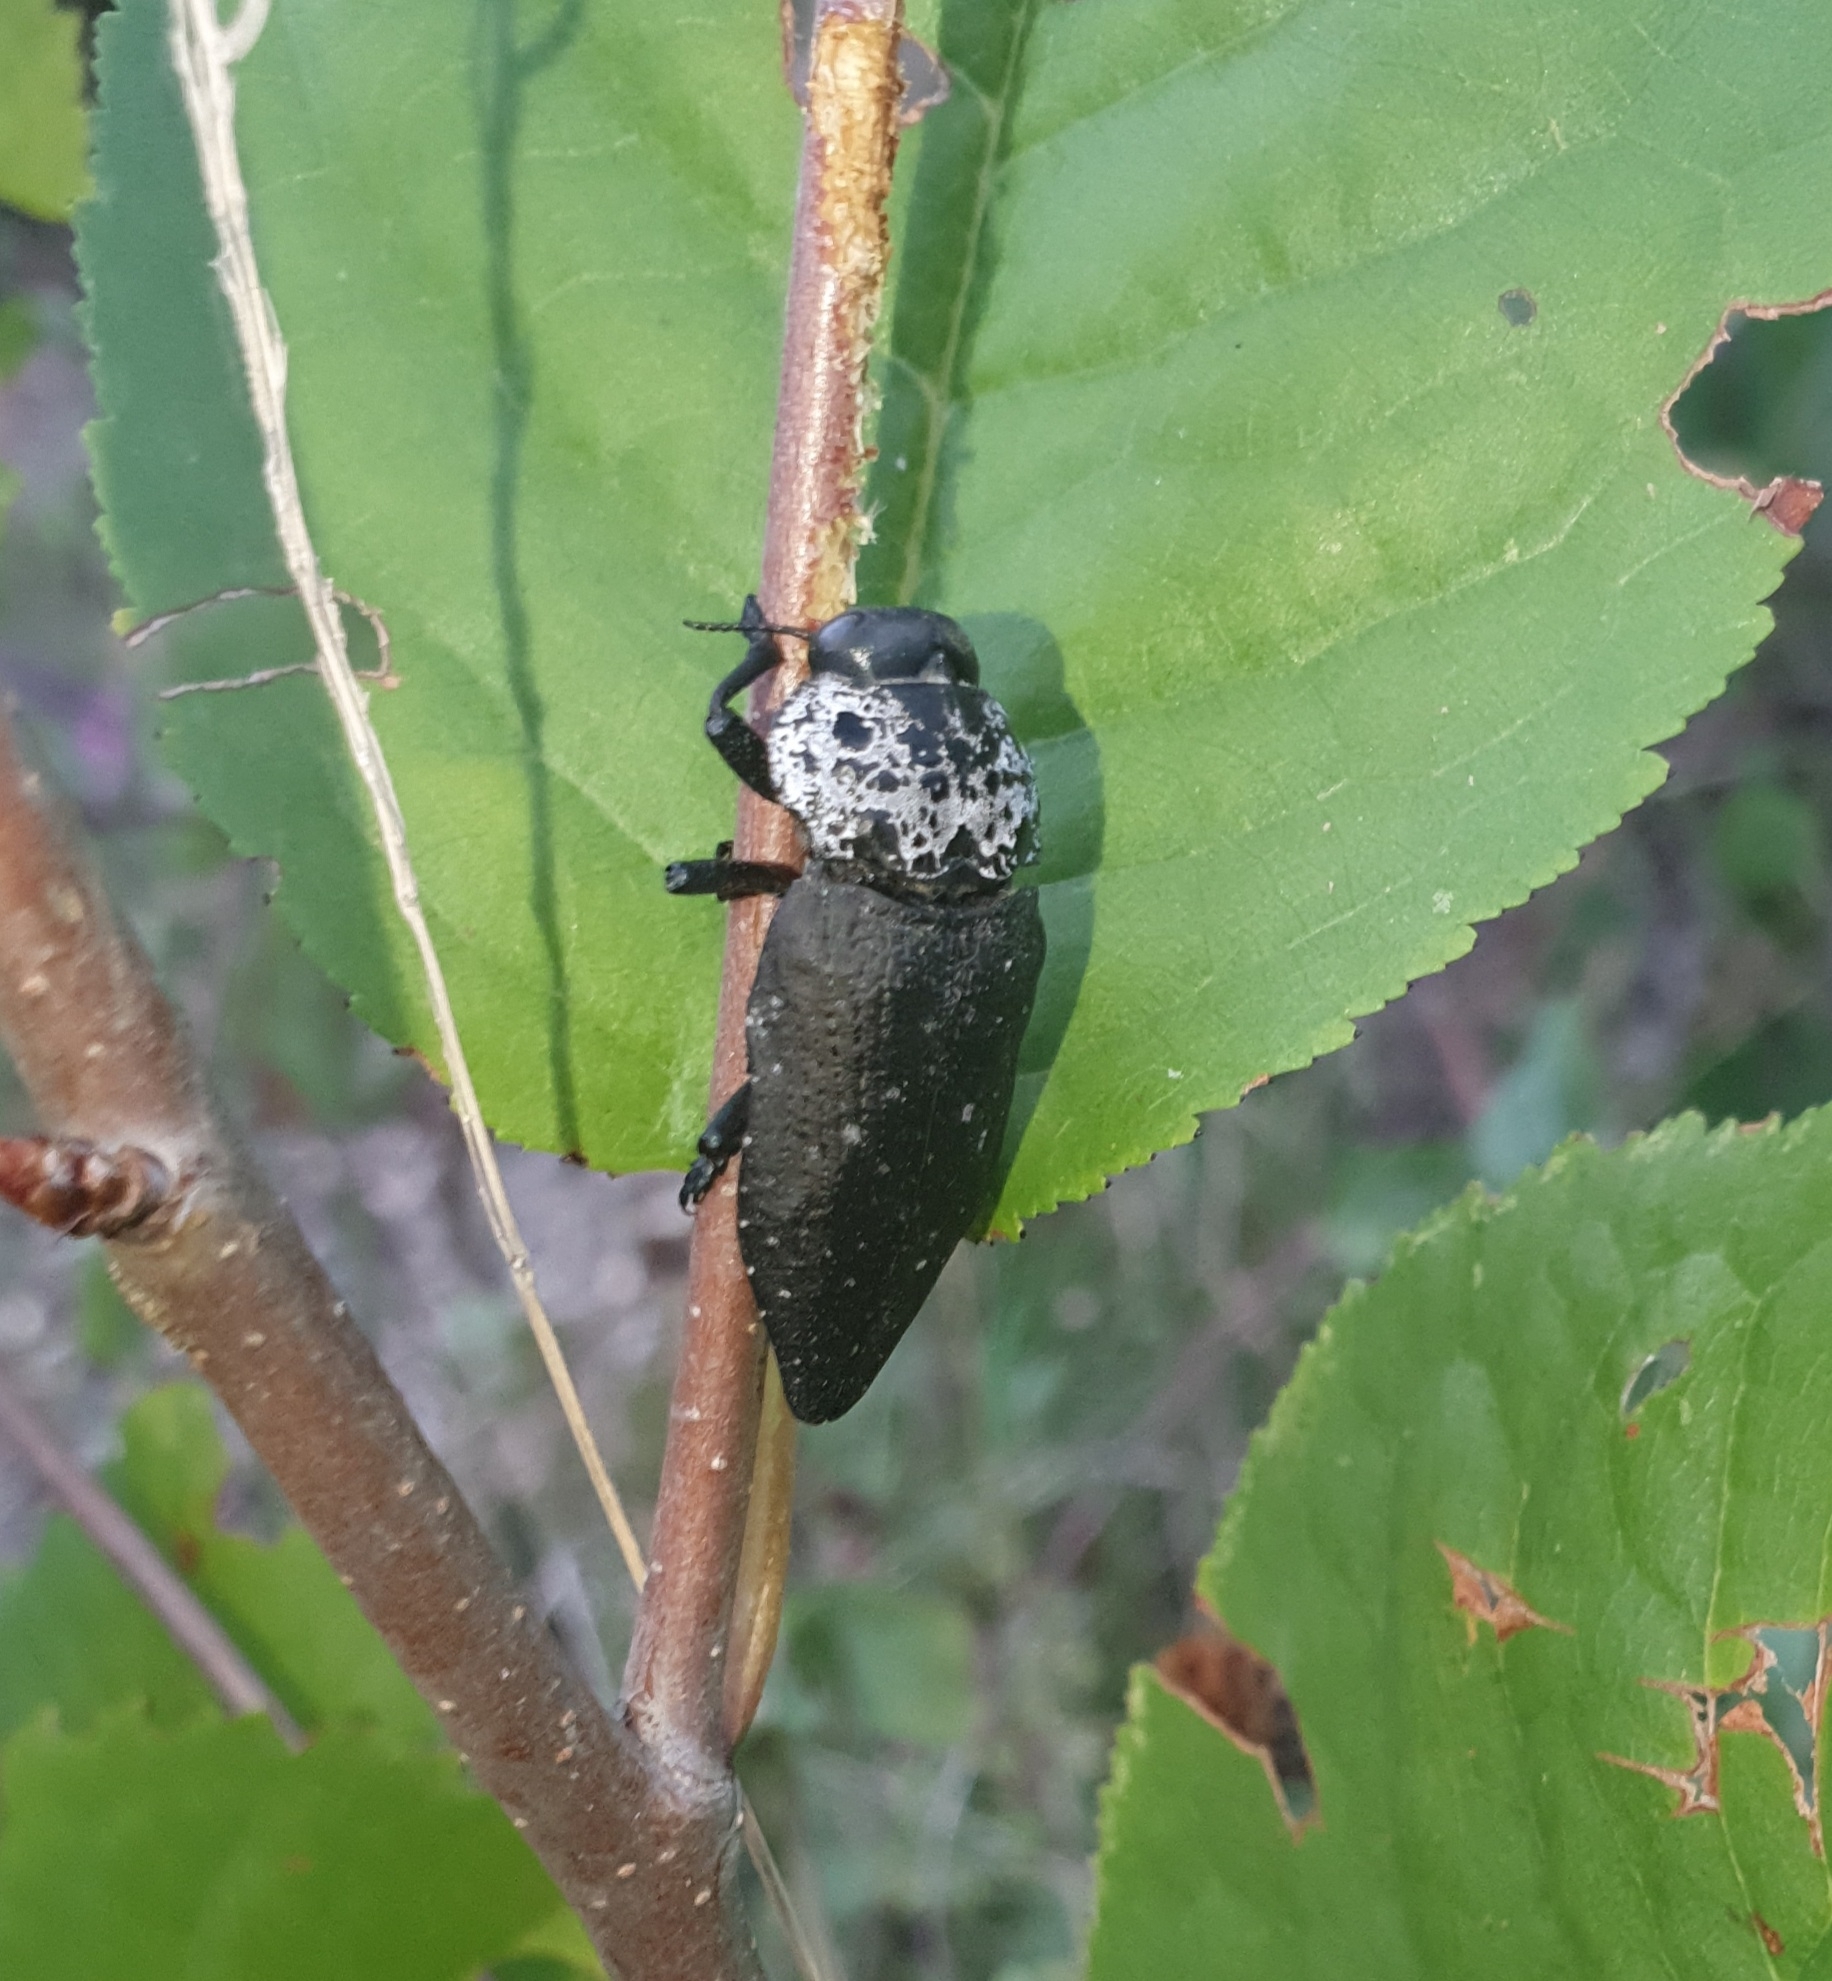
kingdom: Animalia
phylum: Arthropoda
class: Insecta
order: Coleoptera
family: Buprestidae
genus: Capnodis
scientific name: Capnodis tenebrionis
